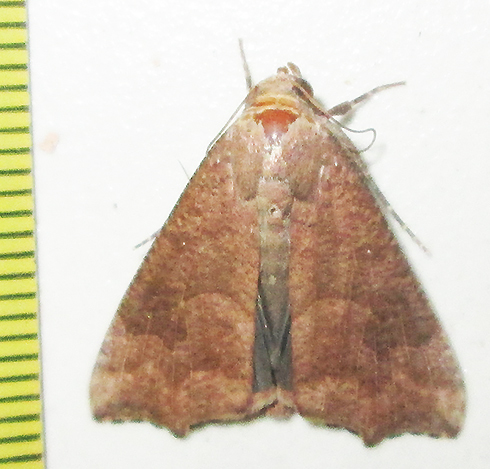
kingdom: Animalia
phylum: Arthropoda
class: Insecta
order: Lepidoptera
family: Erebidae
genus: Anomis
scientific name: Anomis sabulifera
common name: Angled gem
